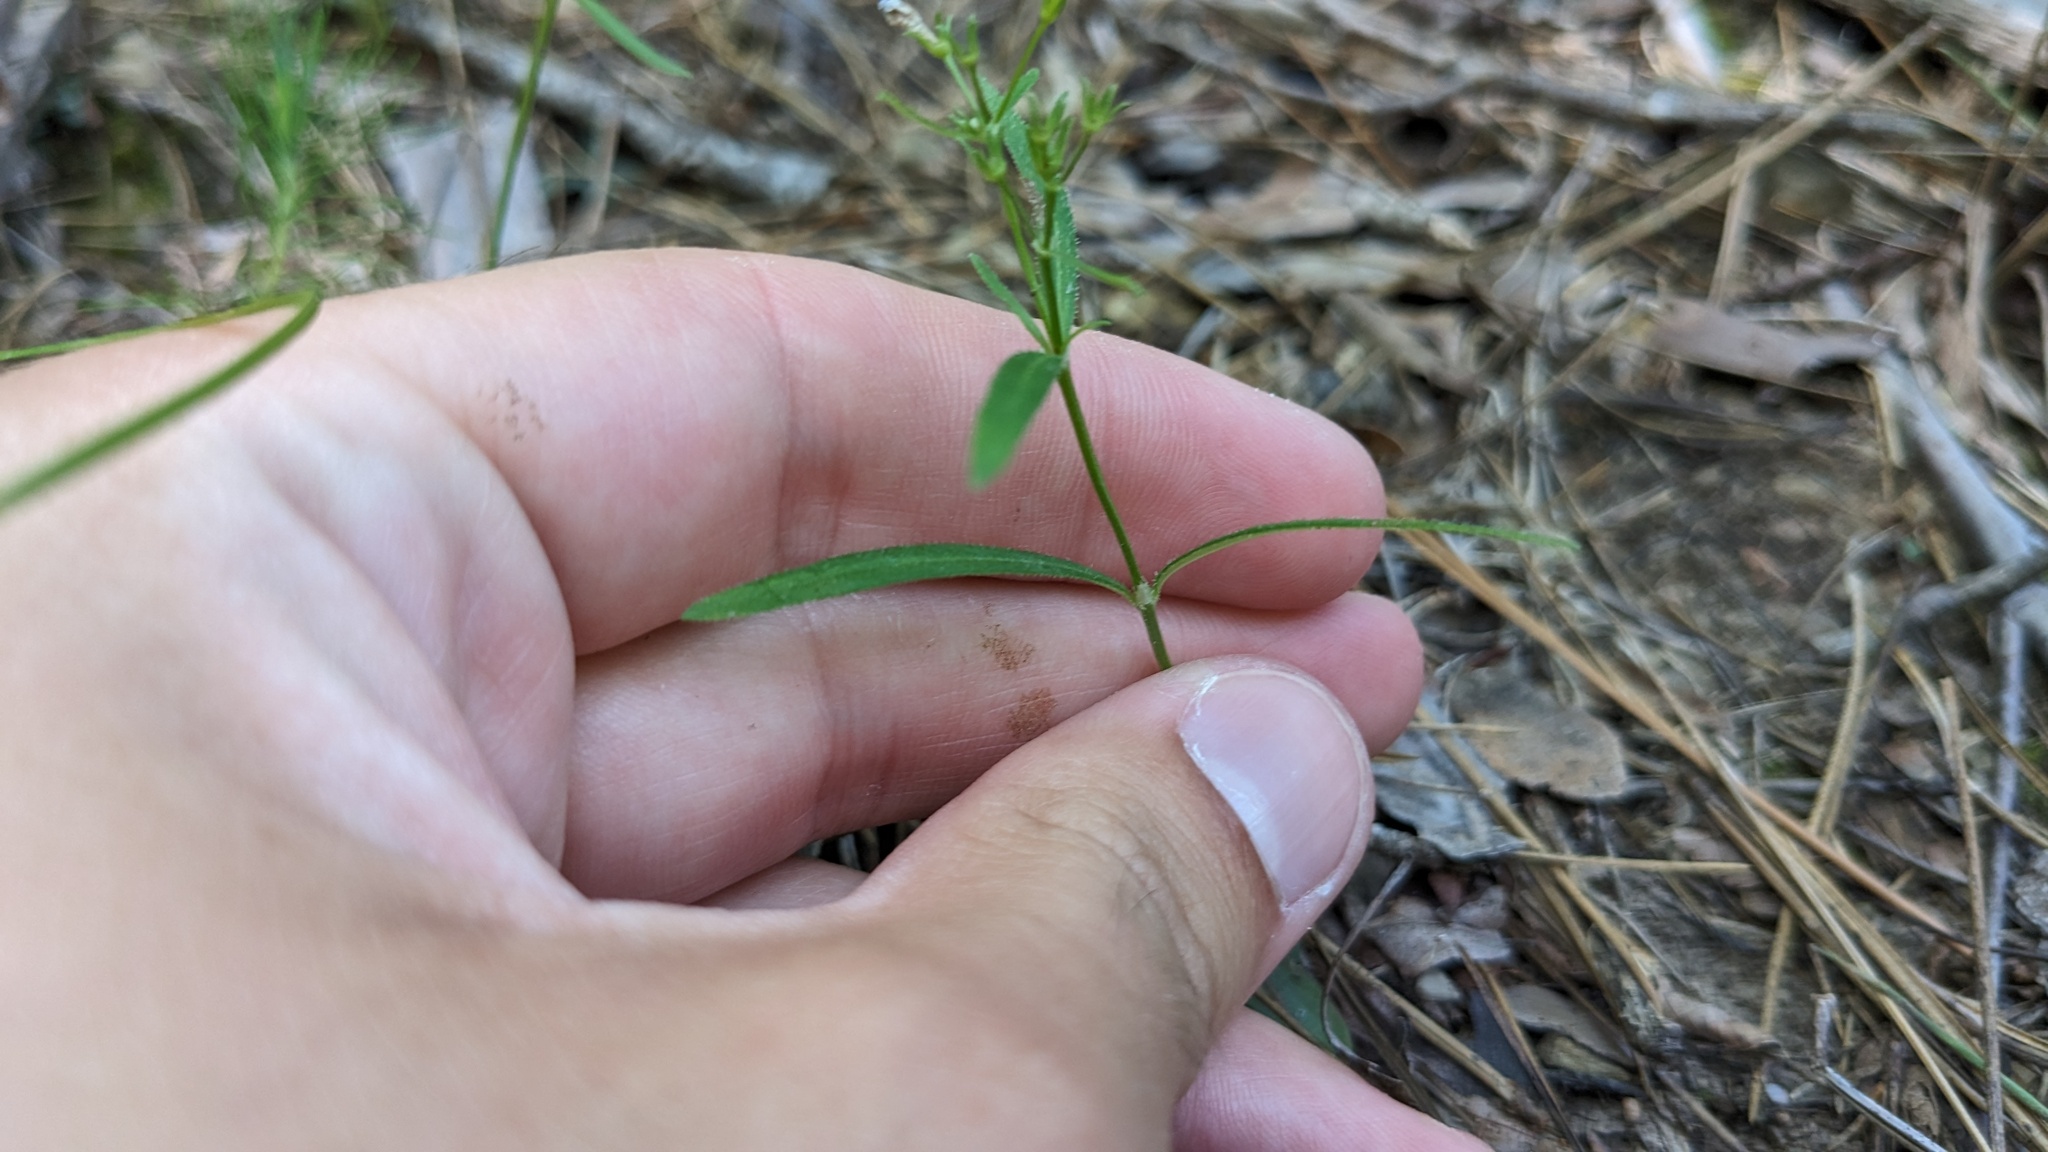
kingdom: Plantae
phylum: Tracheophyta
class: Magnoliopsida
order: Gentianales
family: Rubiaceae
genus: Houstonia
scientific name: Houstonia longifolia
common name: Long-leaved bluets
